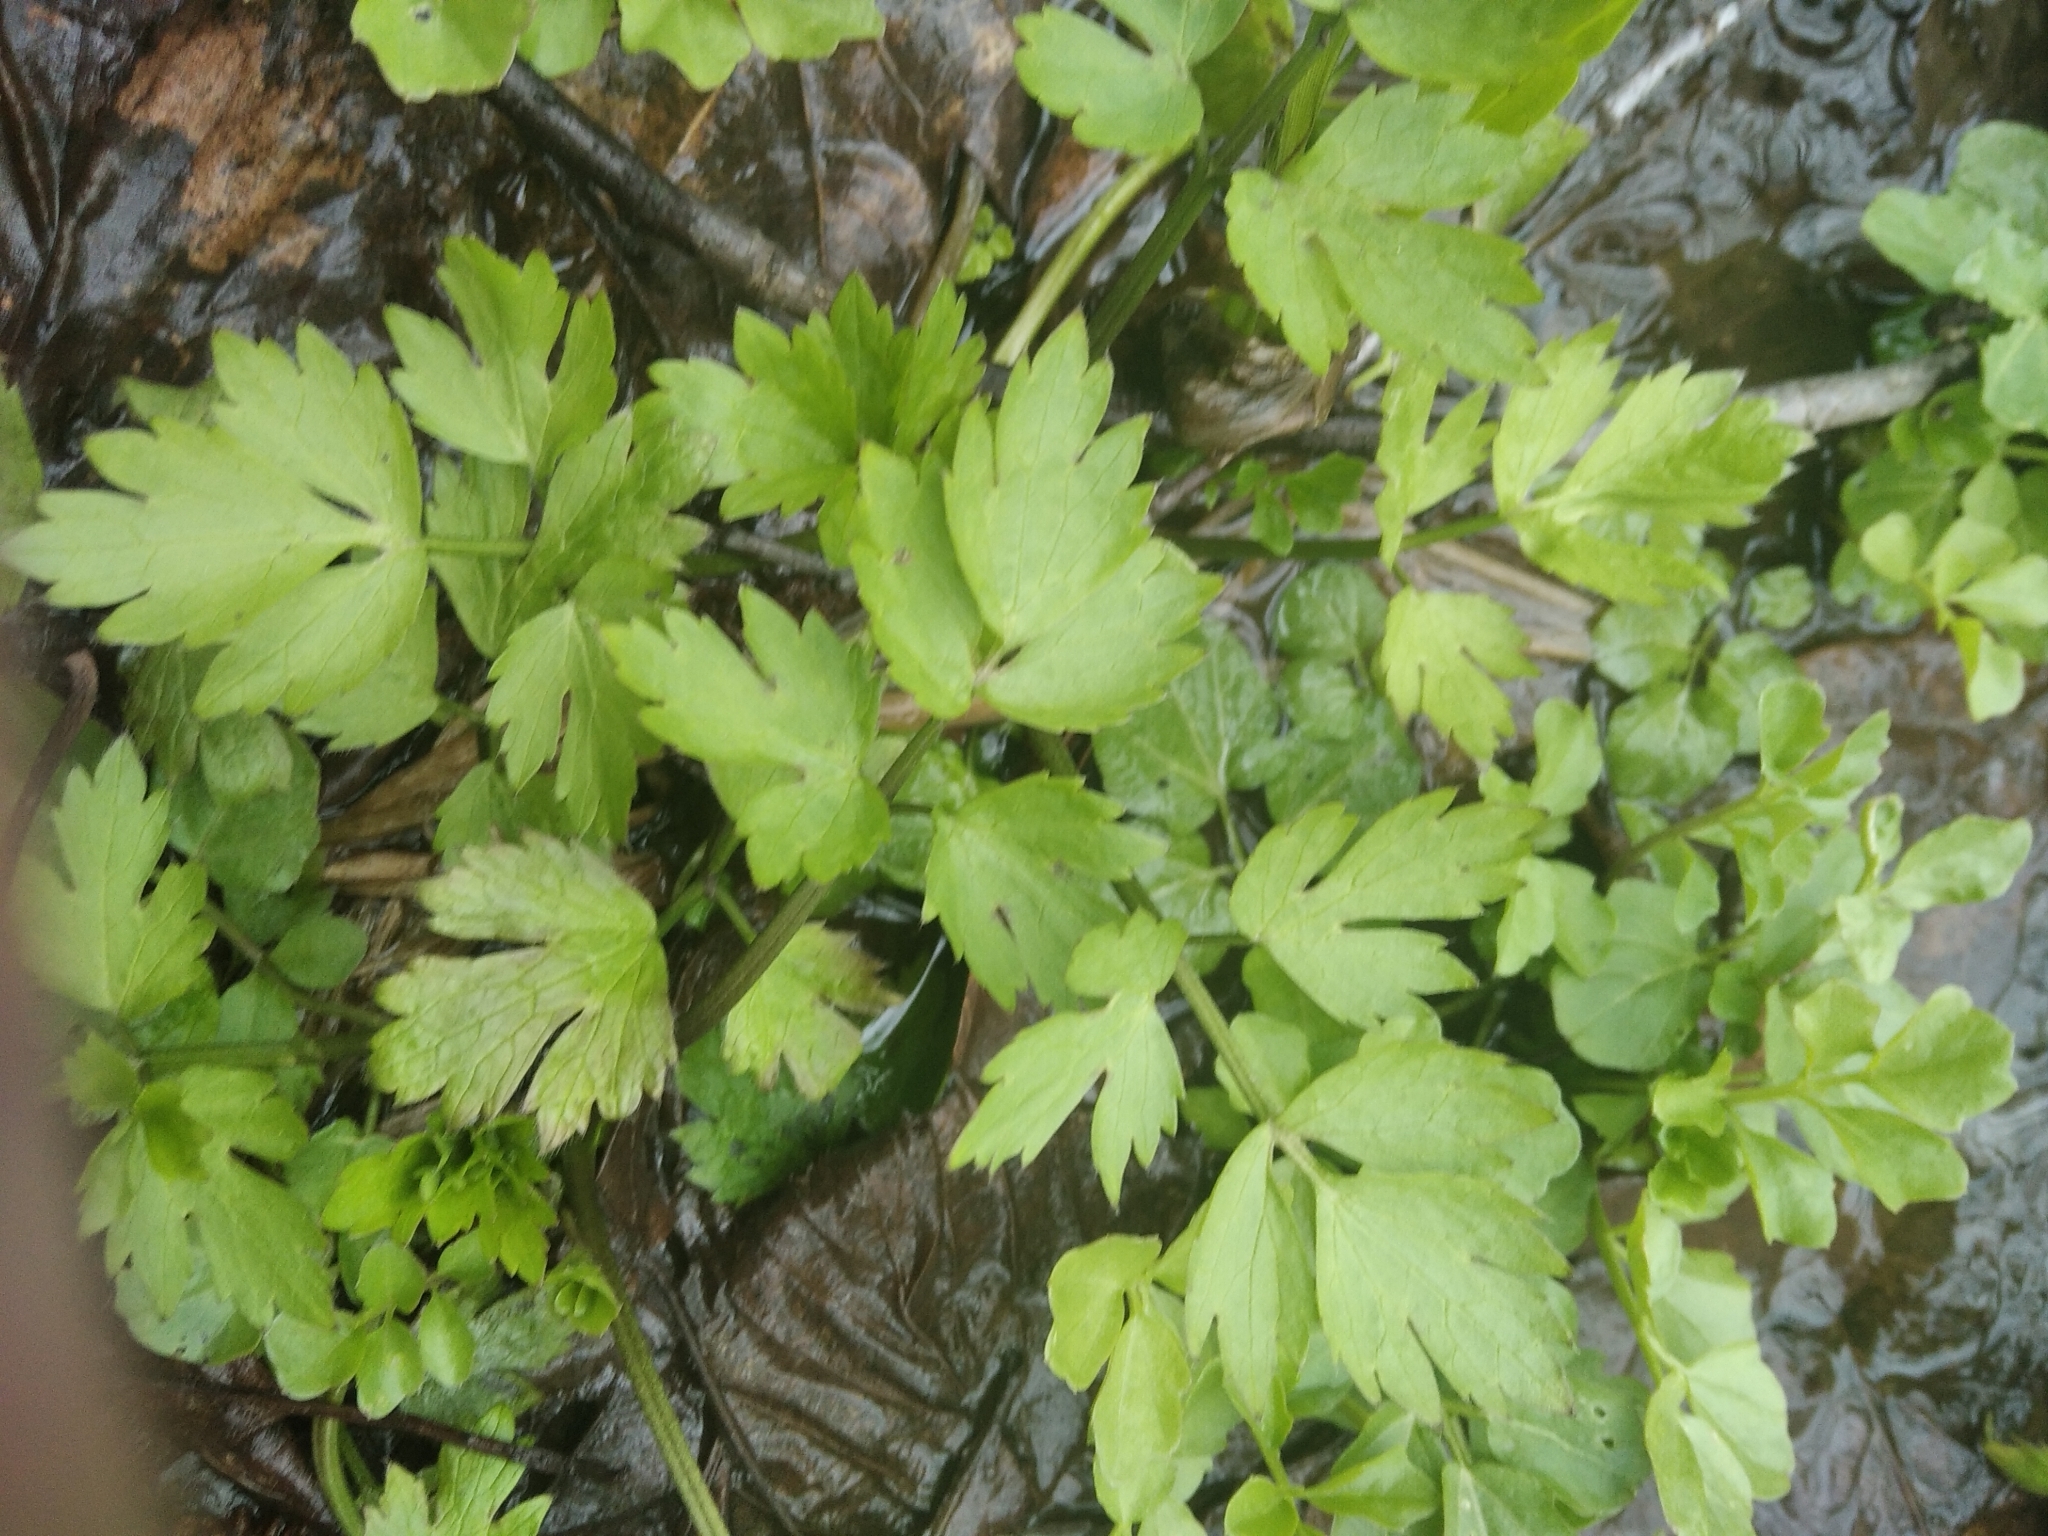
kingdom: Plantae
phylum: Tracheophyta
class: Magnoliopsida
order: Ranunculales
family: Ranunculaceae
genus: Ranunculus
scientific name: Ranunculus repens
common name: Creeping buttercup
